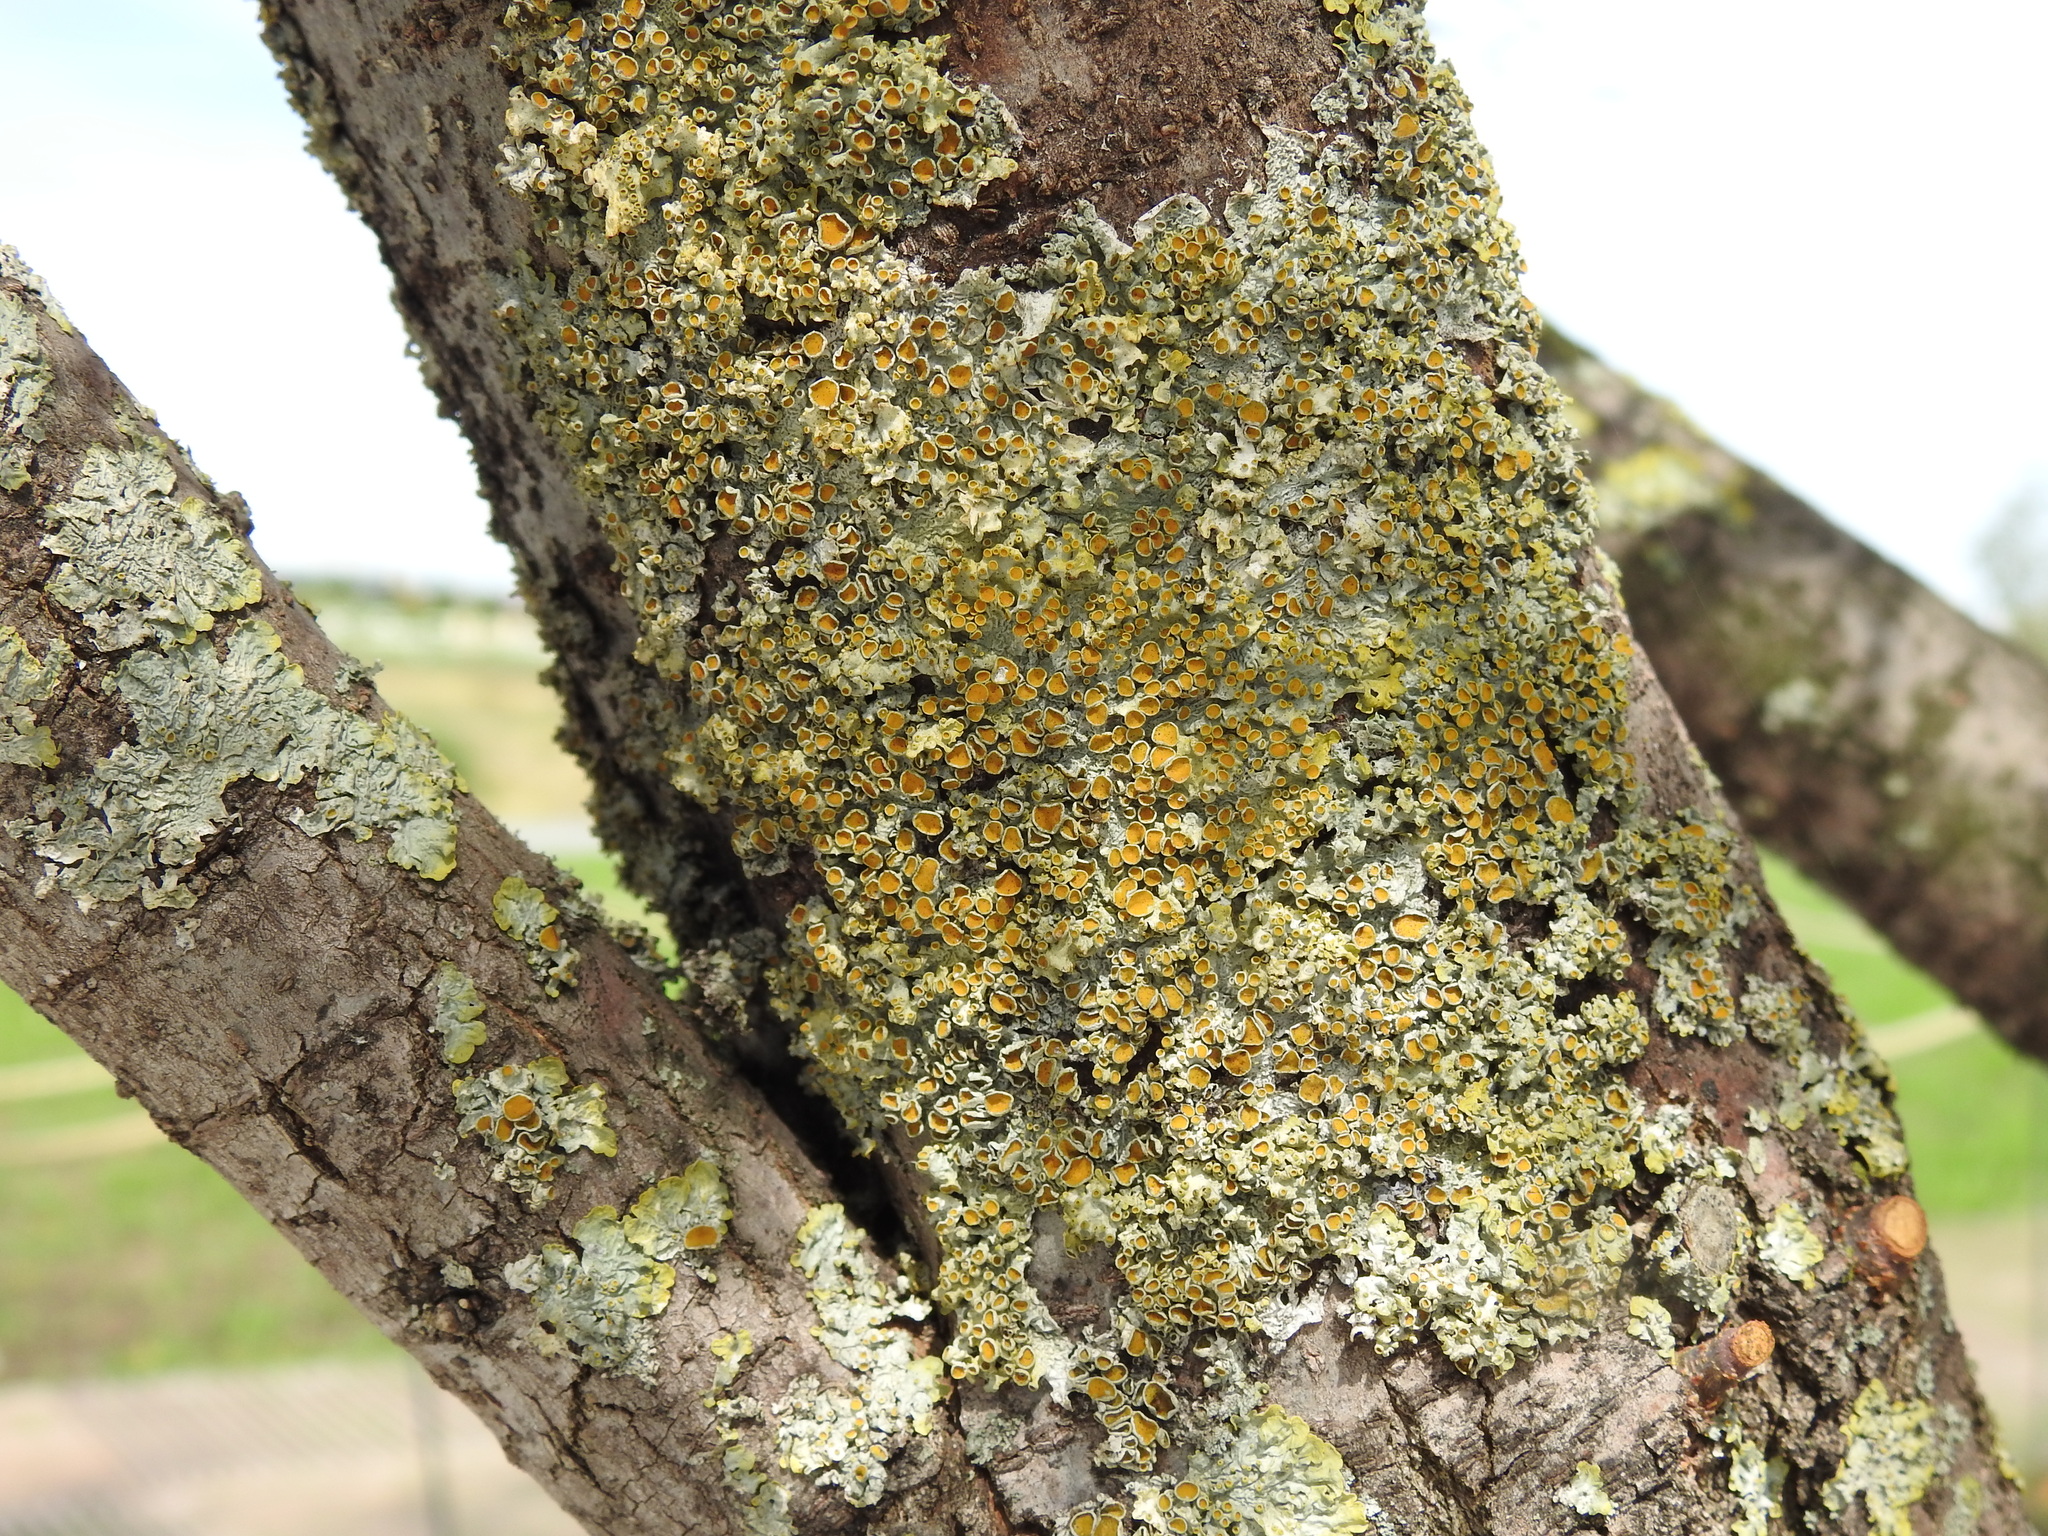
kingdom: Fungi
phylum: Ascomycota
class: Lecanoromycetes
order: Teloschistales
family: Teloschistaceae
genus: Xanthoria
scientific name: Xanthoria parietina
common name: Common orange lichen
